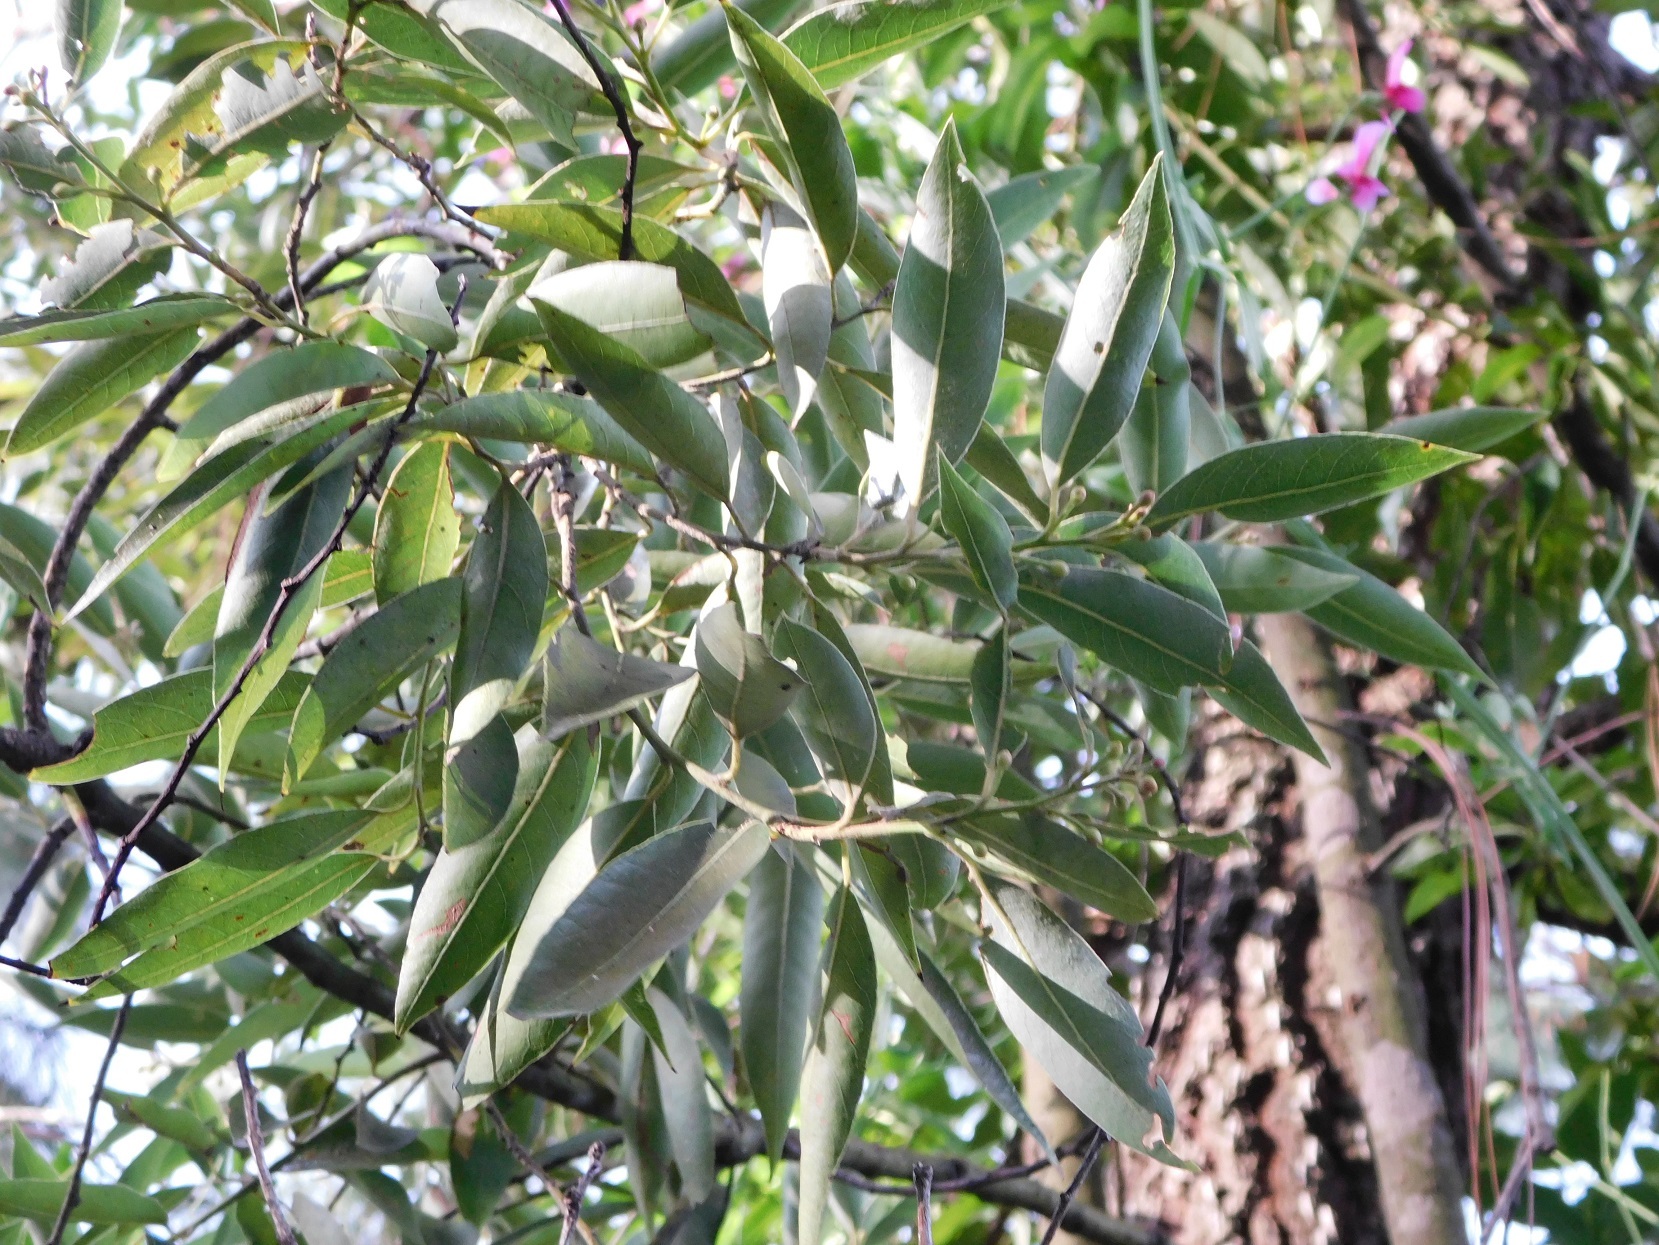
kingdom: Plantae
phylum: Tracheophyta
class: Magnoliopsida
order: Laurales
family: Lauraceae
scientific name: Lauraceae
